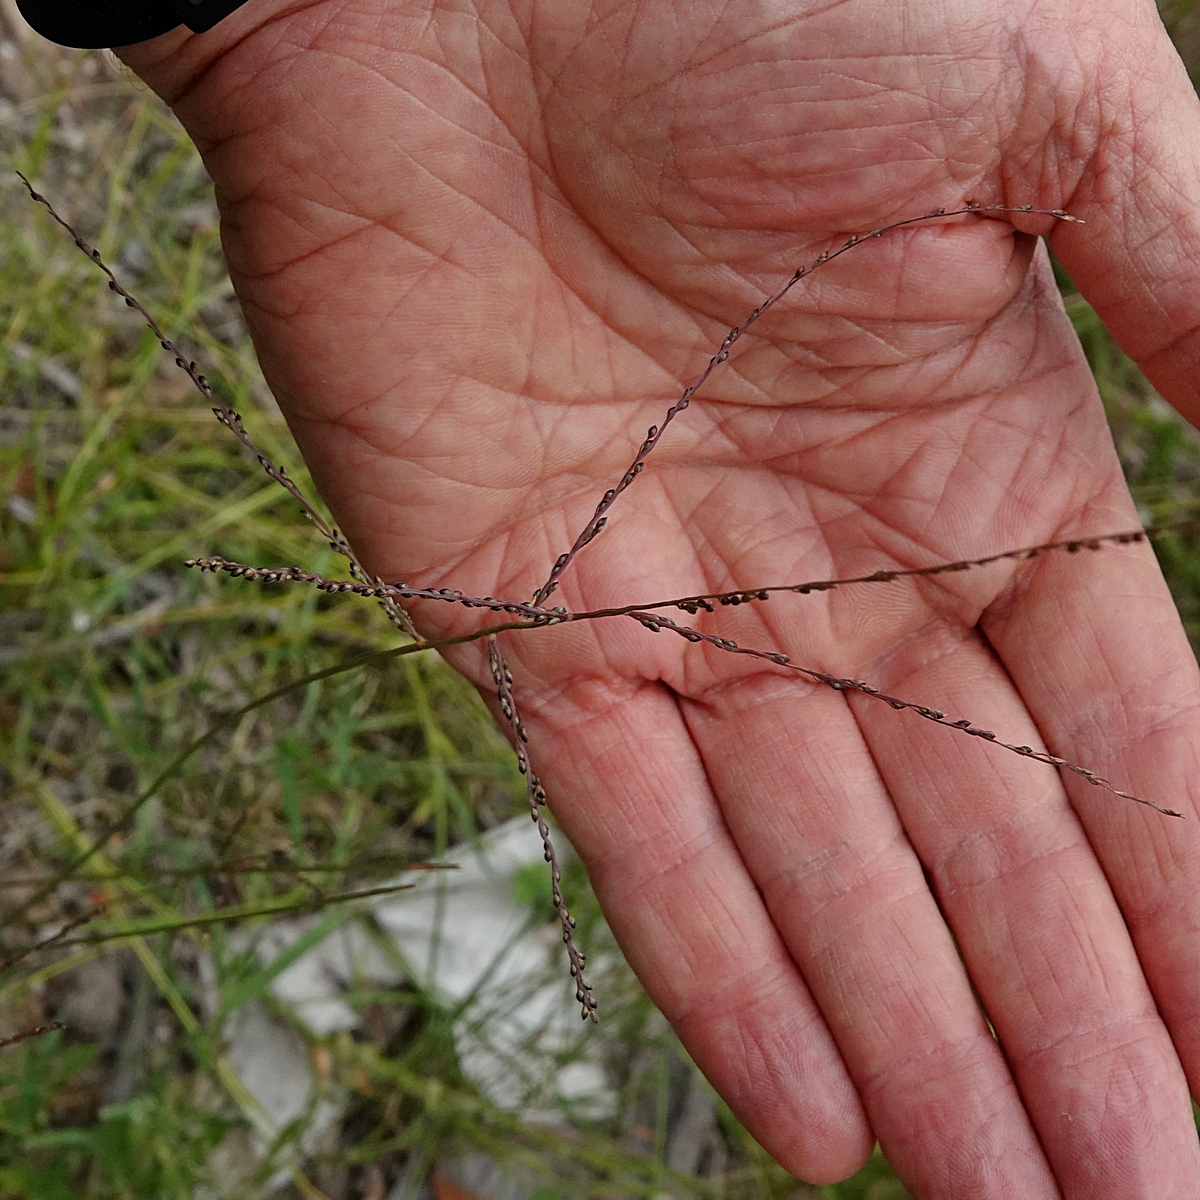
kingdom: Plantae
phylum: Tracheophyta
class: Liliopsida
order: Poales
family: Poaceae
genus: Digitaria
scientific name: Digitaria ramularis
